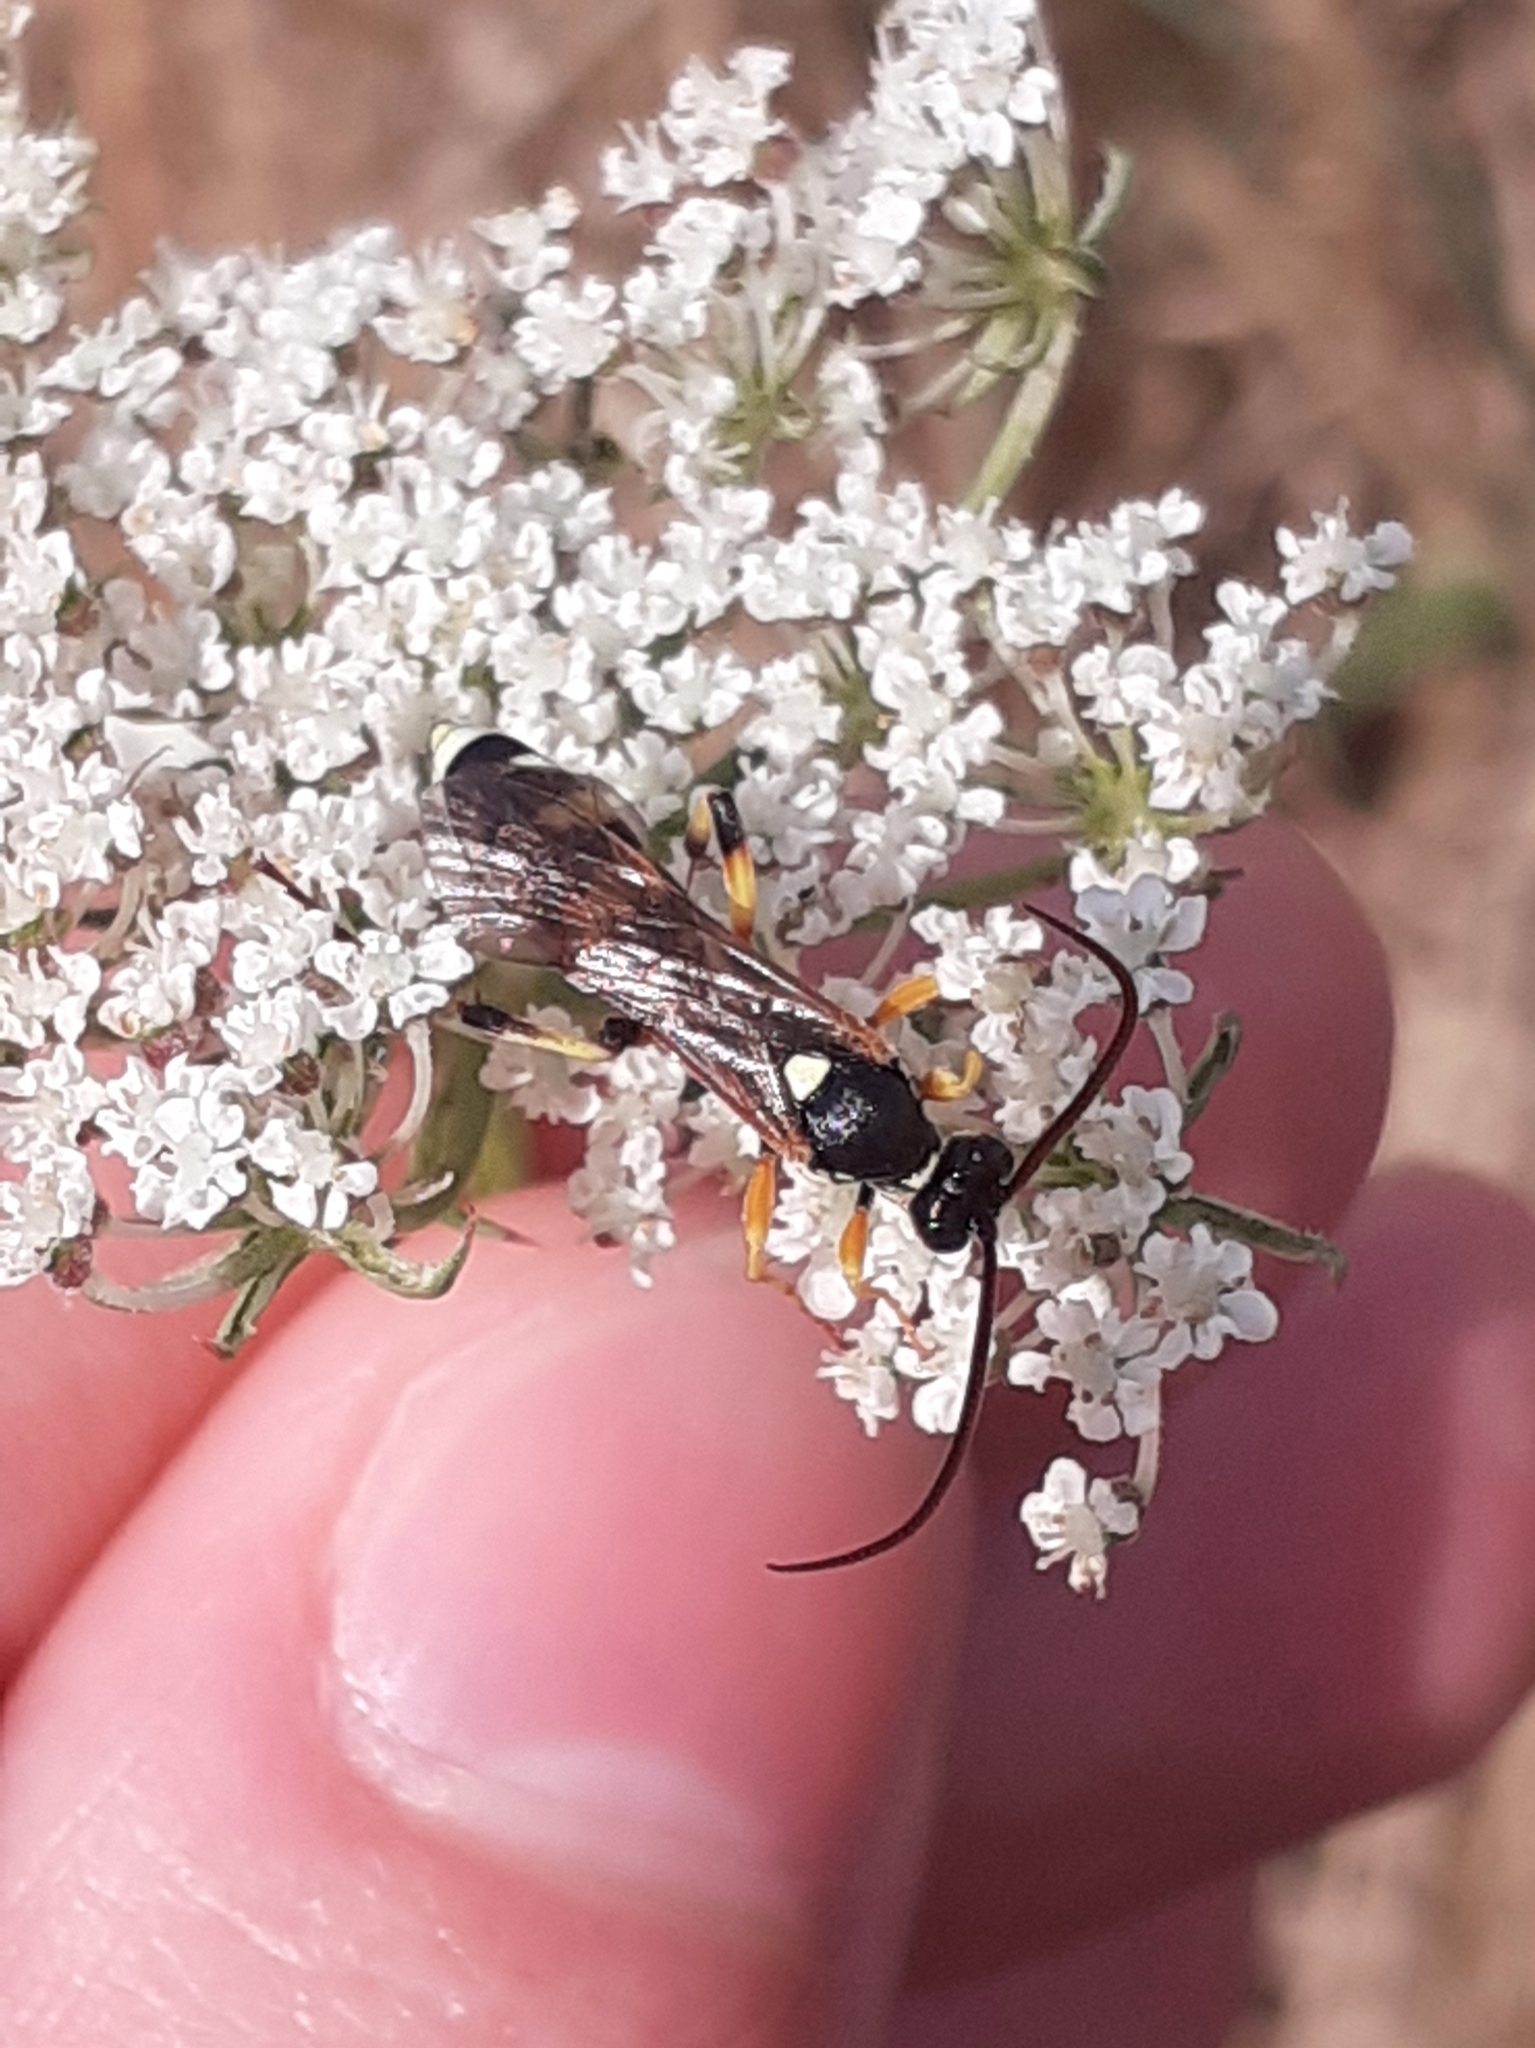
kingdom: Animalia
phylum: Arthropoda
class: Insecta
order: Hymenoptera
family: Ichneumonidae
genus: Ichneumon
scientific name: Ichneumon sarcitorius
